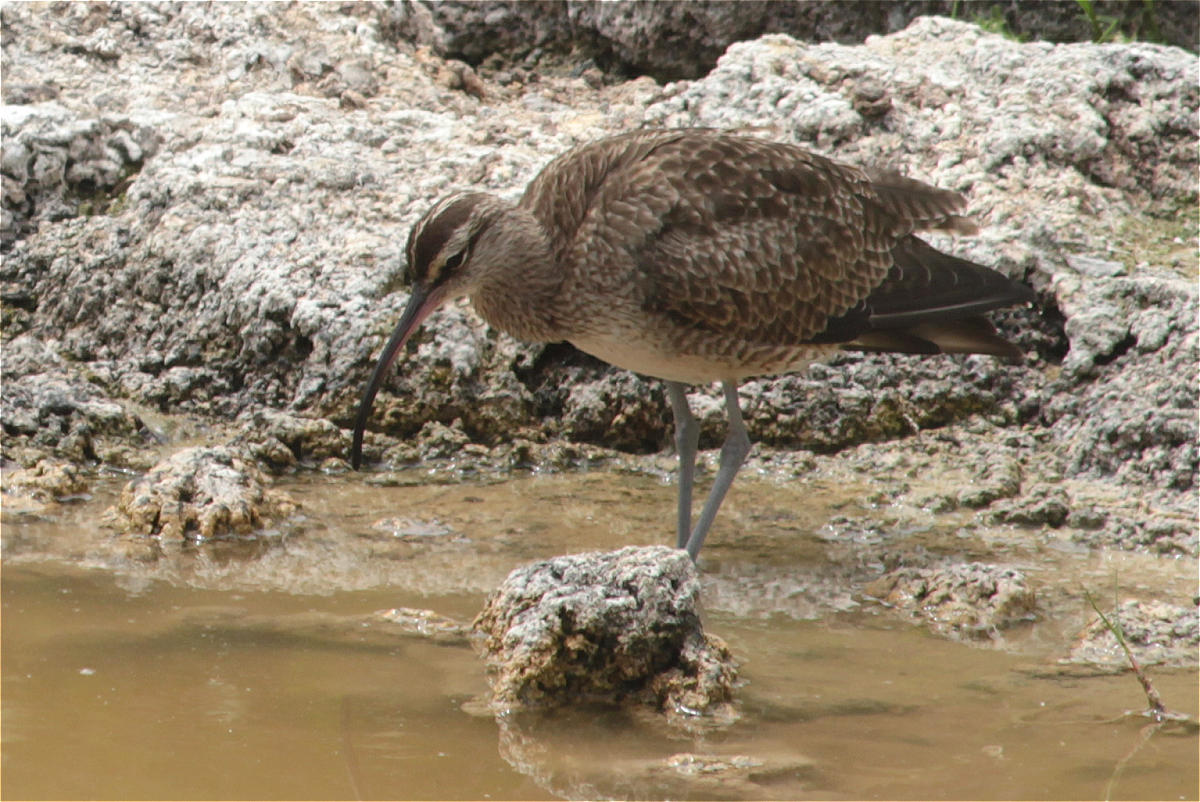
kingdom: Animalia
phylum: Chordata
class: Aves
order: Charadriiformes
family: Scolopacidae
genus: Numenius
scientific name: Numenius phaeopus
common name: Whimbrel
